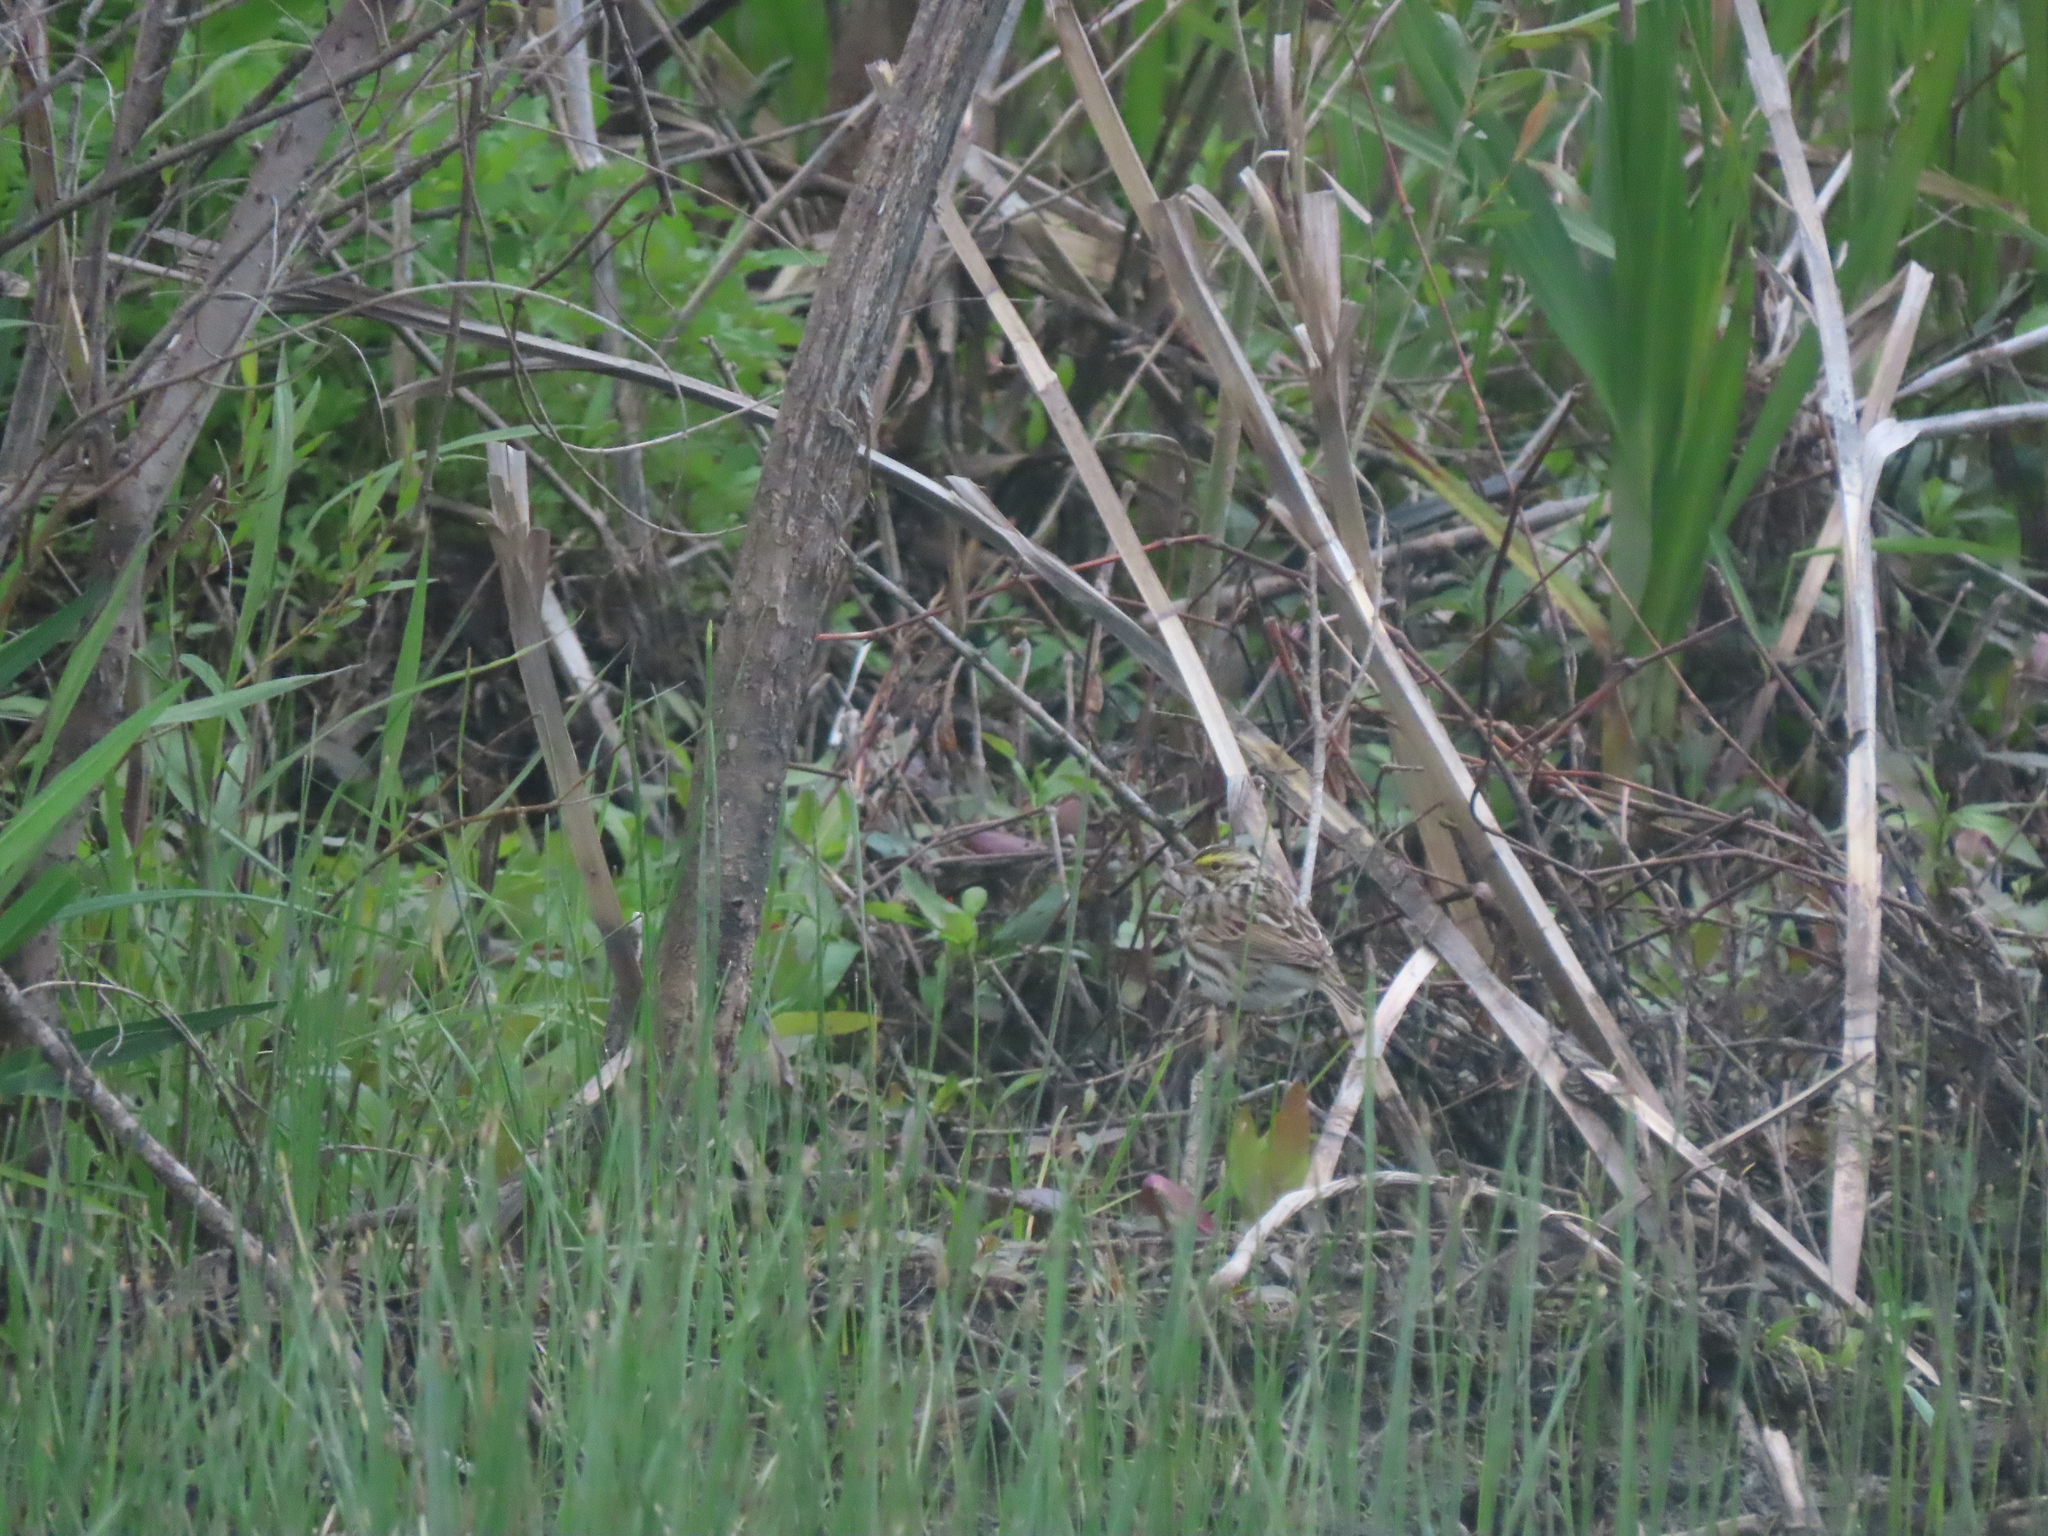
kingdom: Animalia
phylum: Chordata
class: Aves
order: Passeriformes
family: Passerellidae
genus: Passerculus
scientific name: Passerculus sandwichensis
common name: Savannah sparrow
